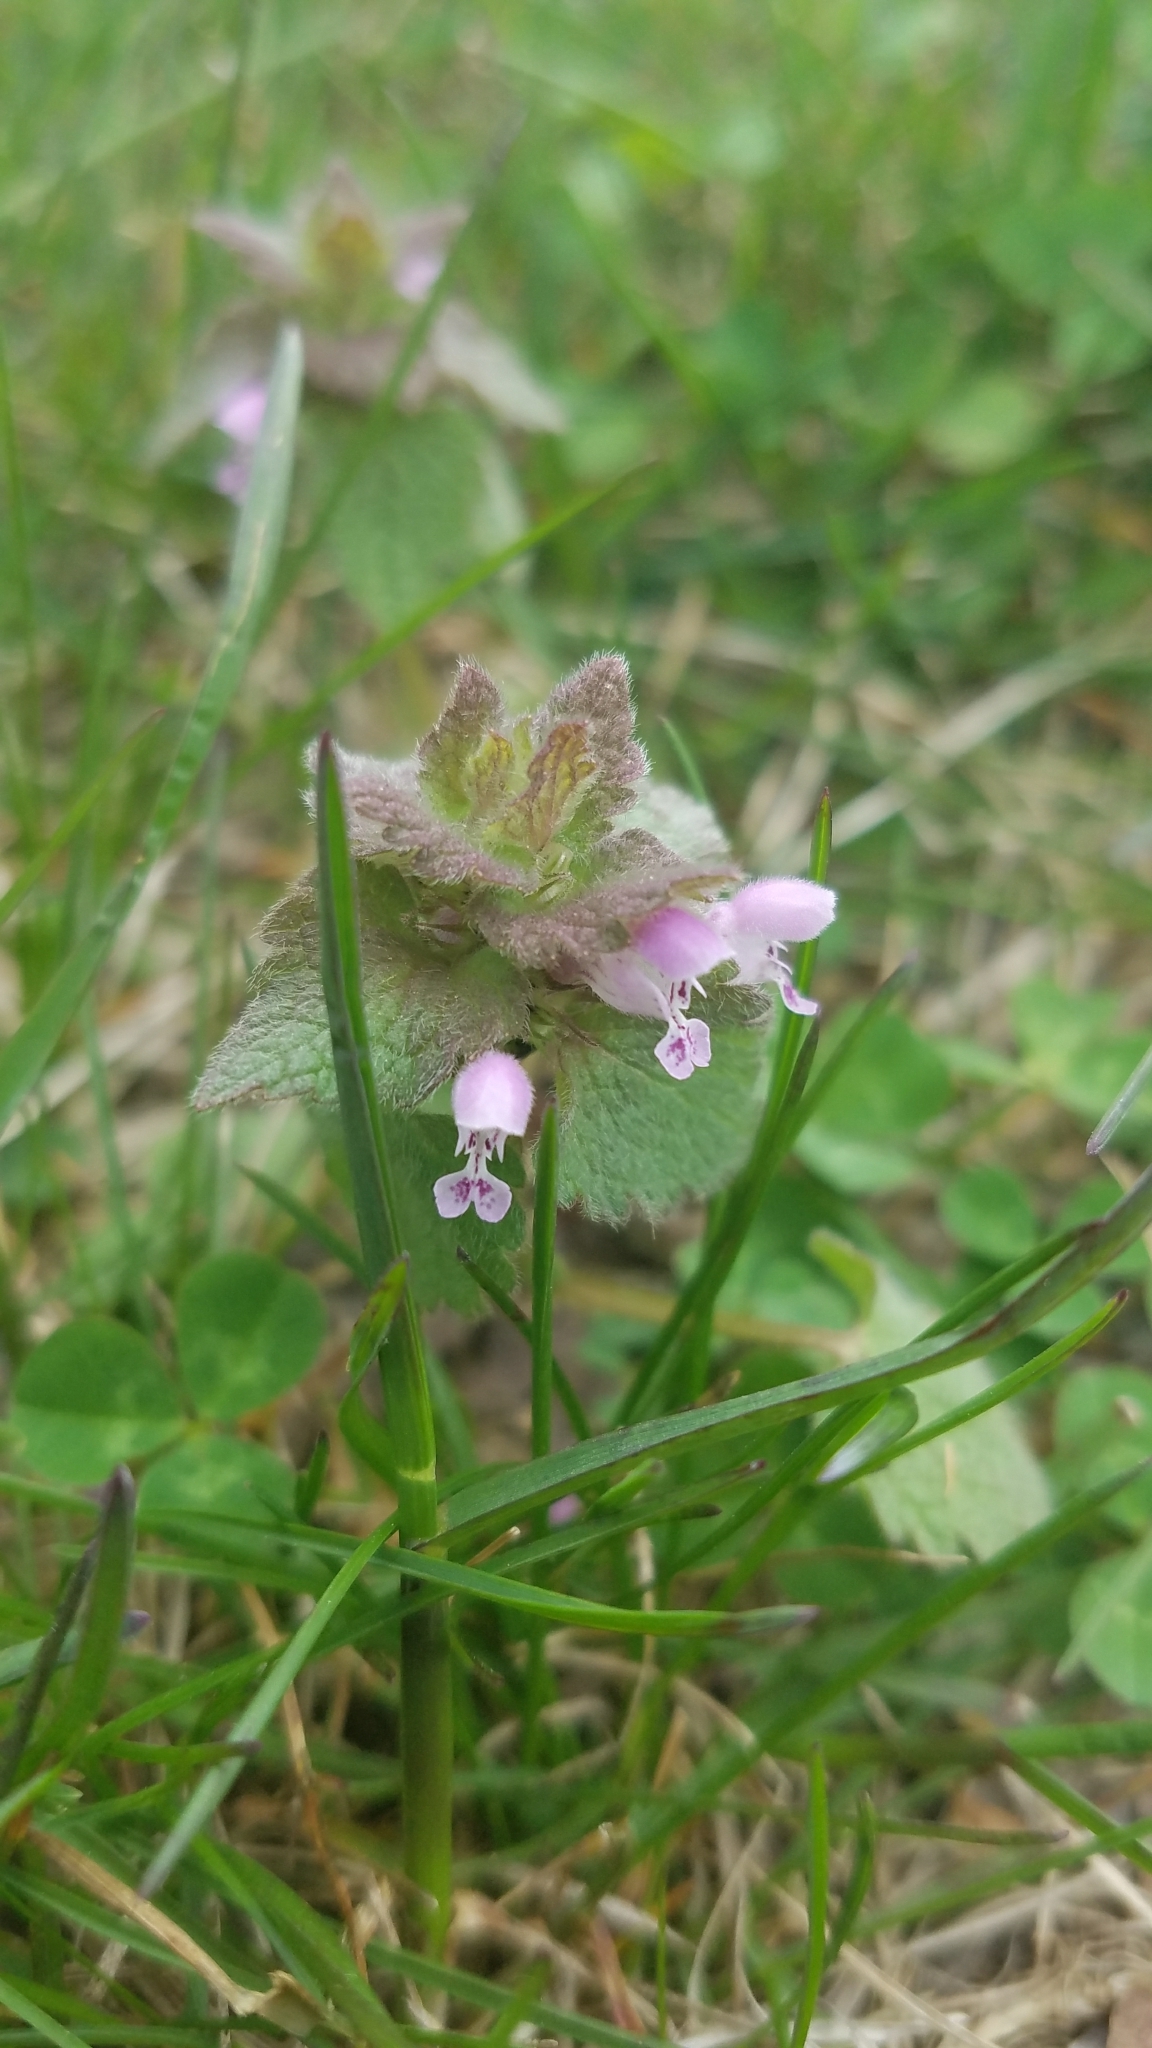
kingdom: Plantae
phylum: Tracheophyta
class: Magnoliopsida
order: Lamiales
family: Lamiaceae
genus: Lamium
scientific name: Lamium purpureum
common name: Red dead-nettle
